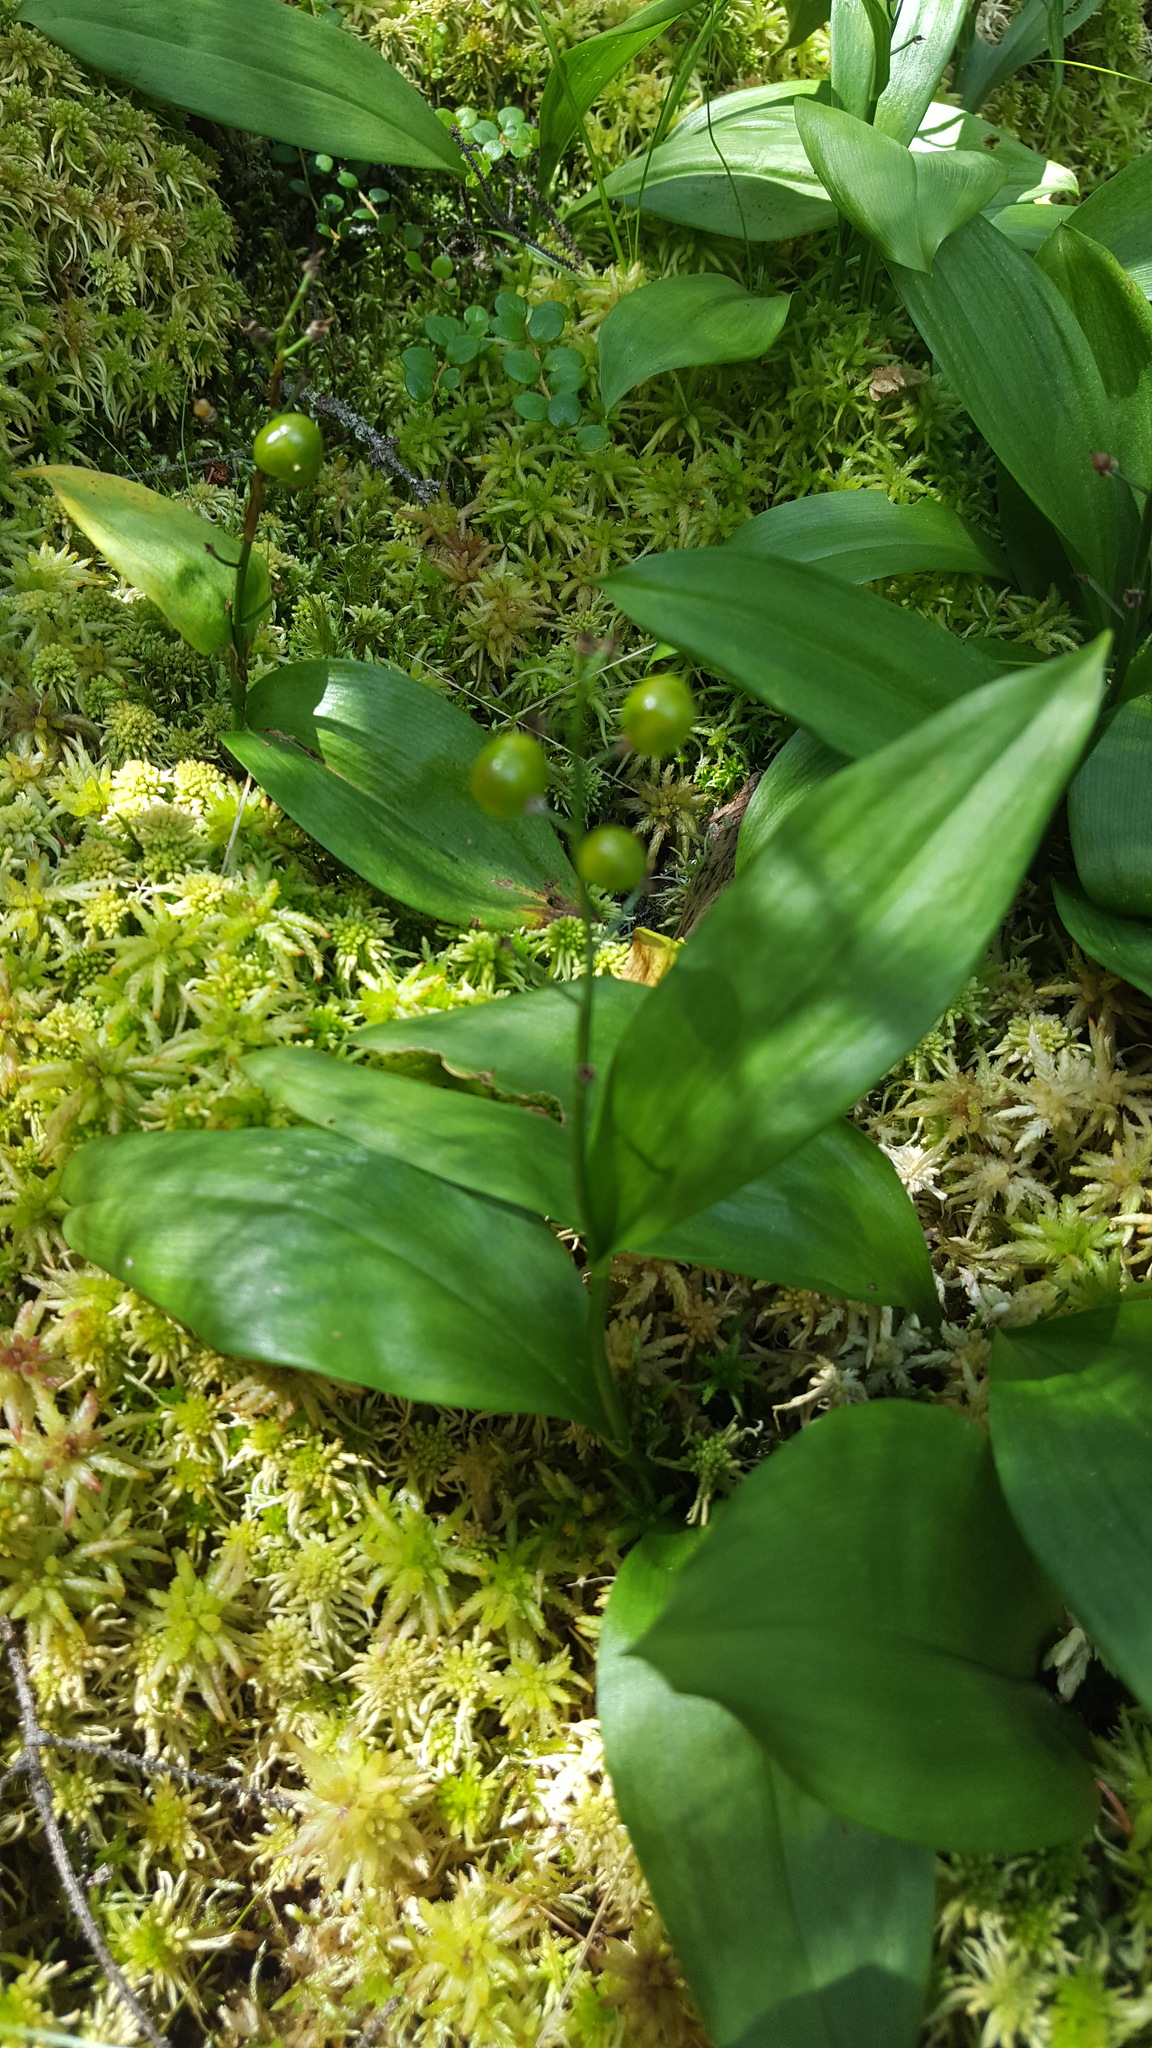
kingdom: Plantae
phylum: Tracheophyta
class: Liliopsida
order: Asparagales
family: Asparagaceae
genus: Maianthemum
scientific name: Maianthemum trifolium
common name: Swamp false solomon's seal
